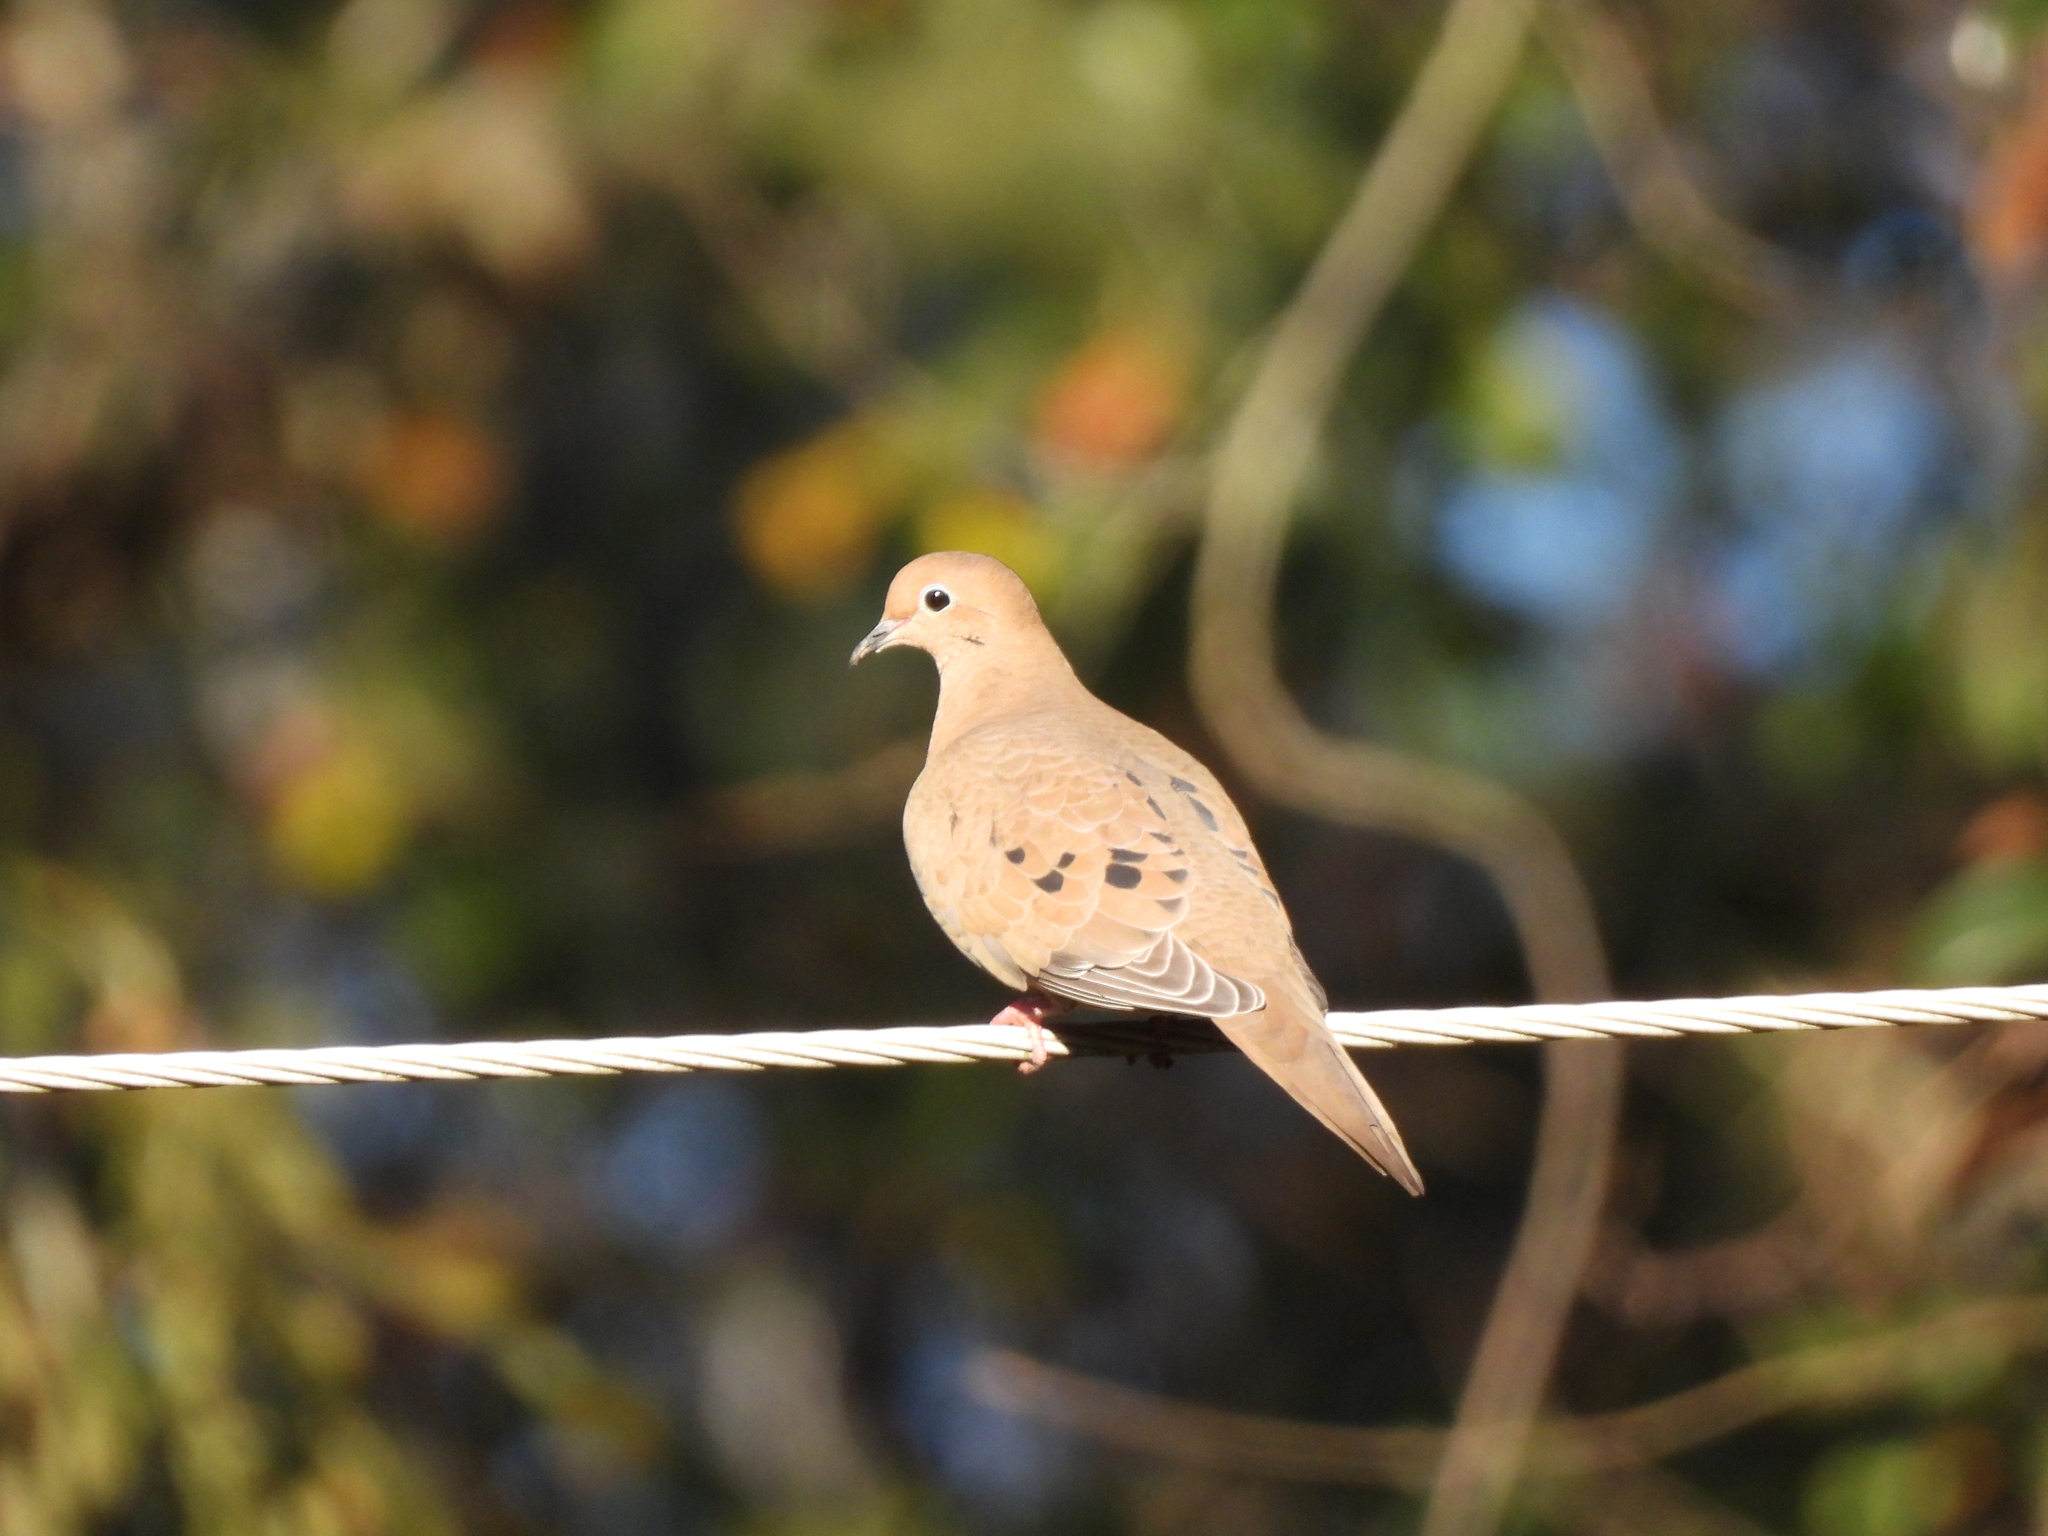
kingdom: Animalia
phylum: Chordata
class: Aves
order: Columbiformes
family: Columbidae
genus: Zenaida
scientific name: Zenaida macroura
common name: Mourning dove
